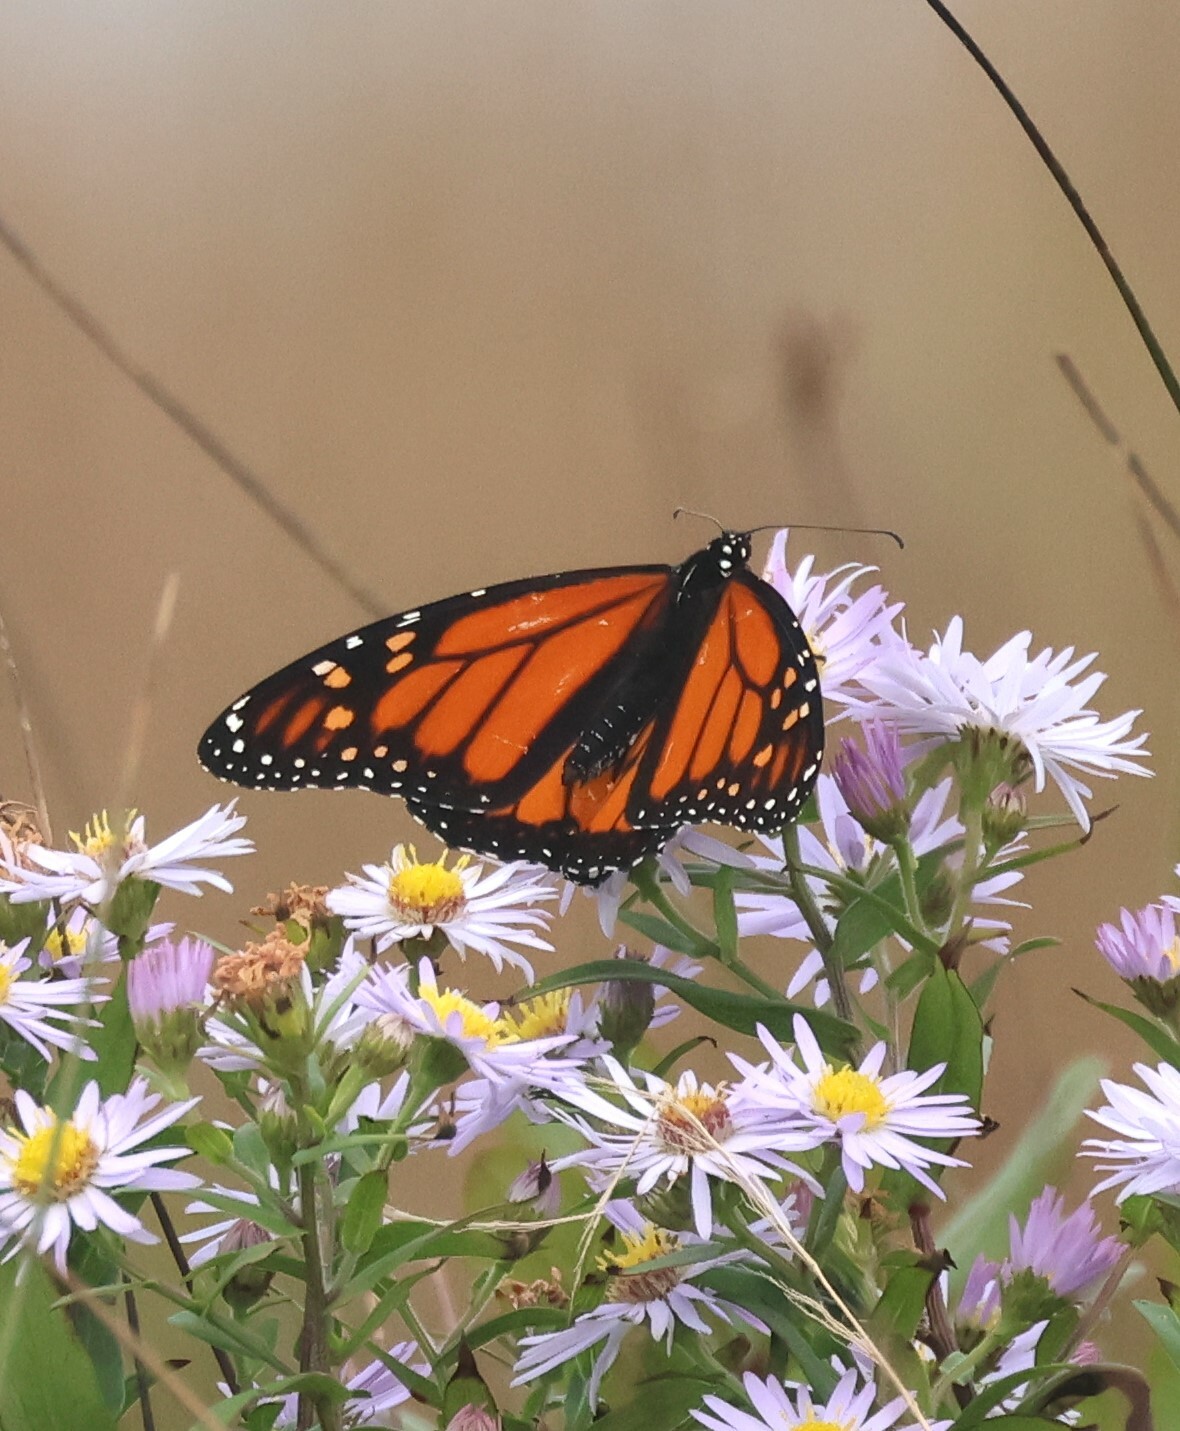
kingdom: Animalia
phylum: Arthropoda
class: Insecta
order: Lepidoptera
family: Nymphalidae
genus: Danaus
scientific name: Danaus plexippus
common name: Monarch
